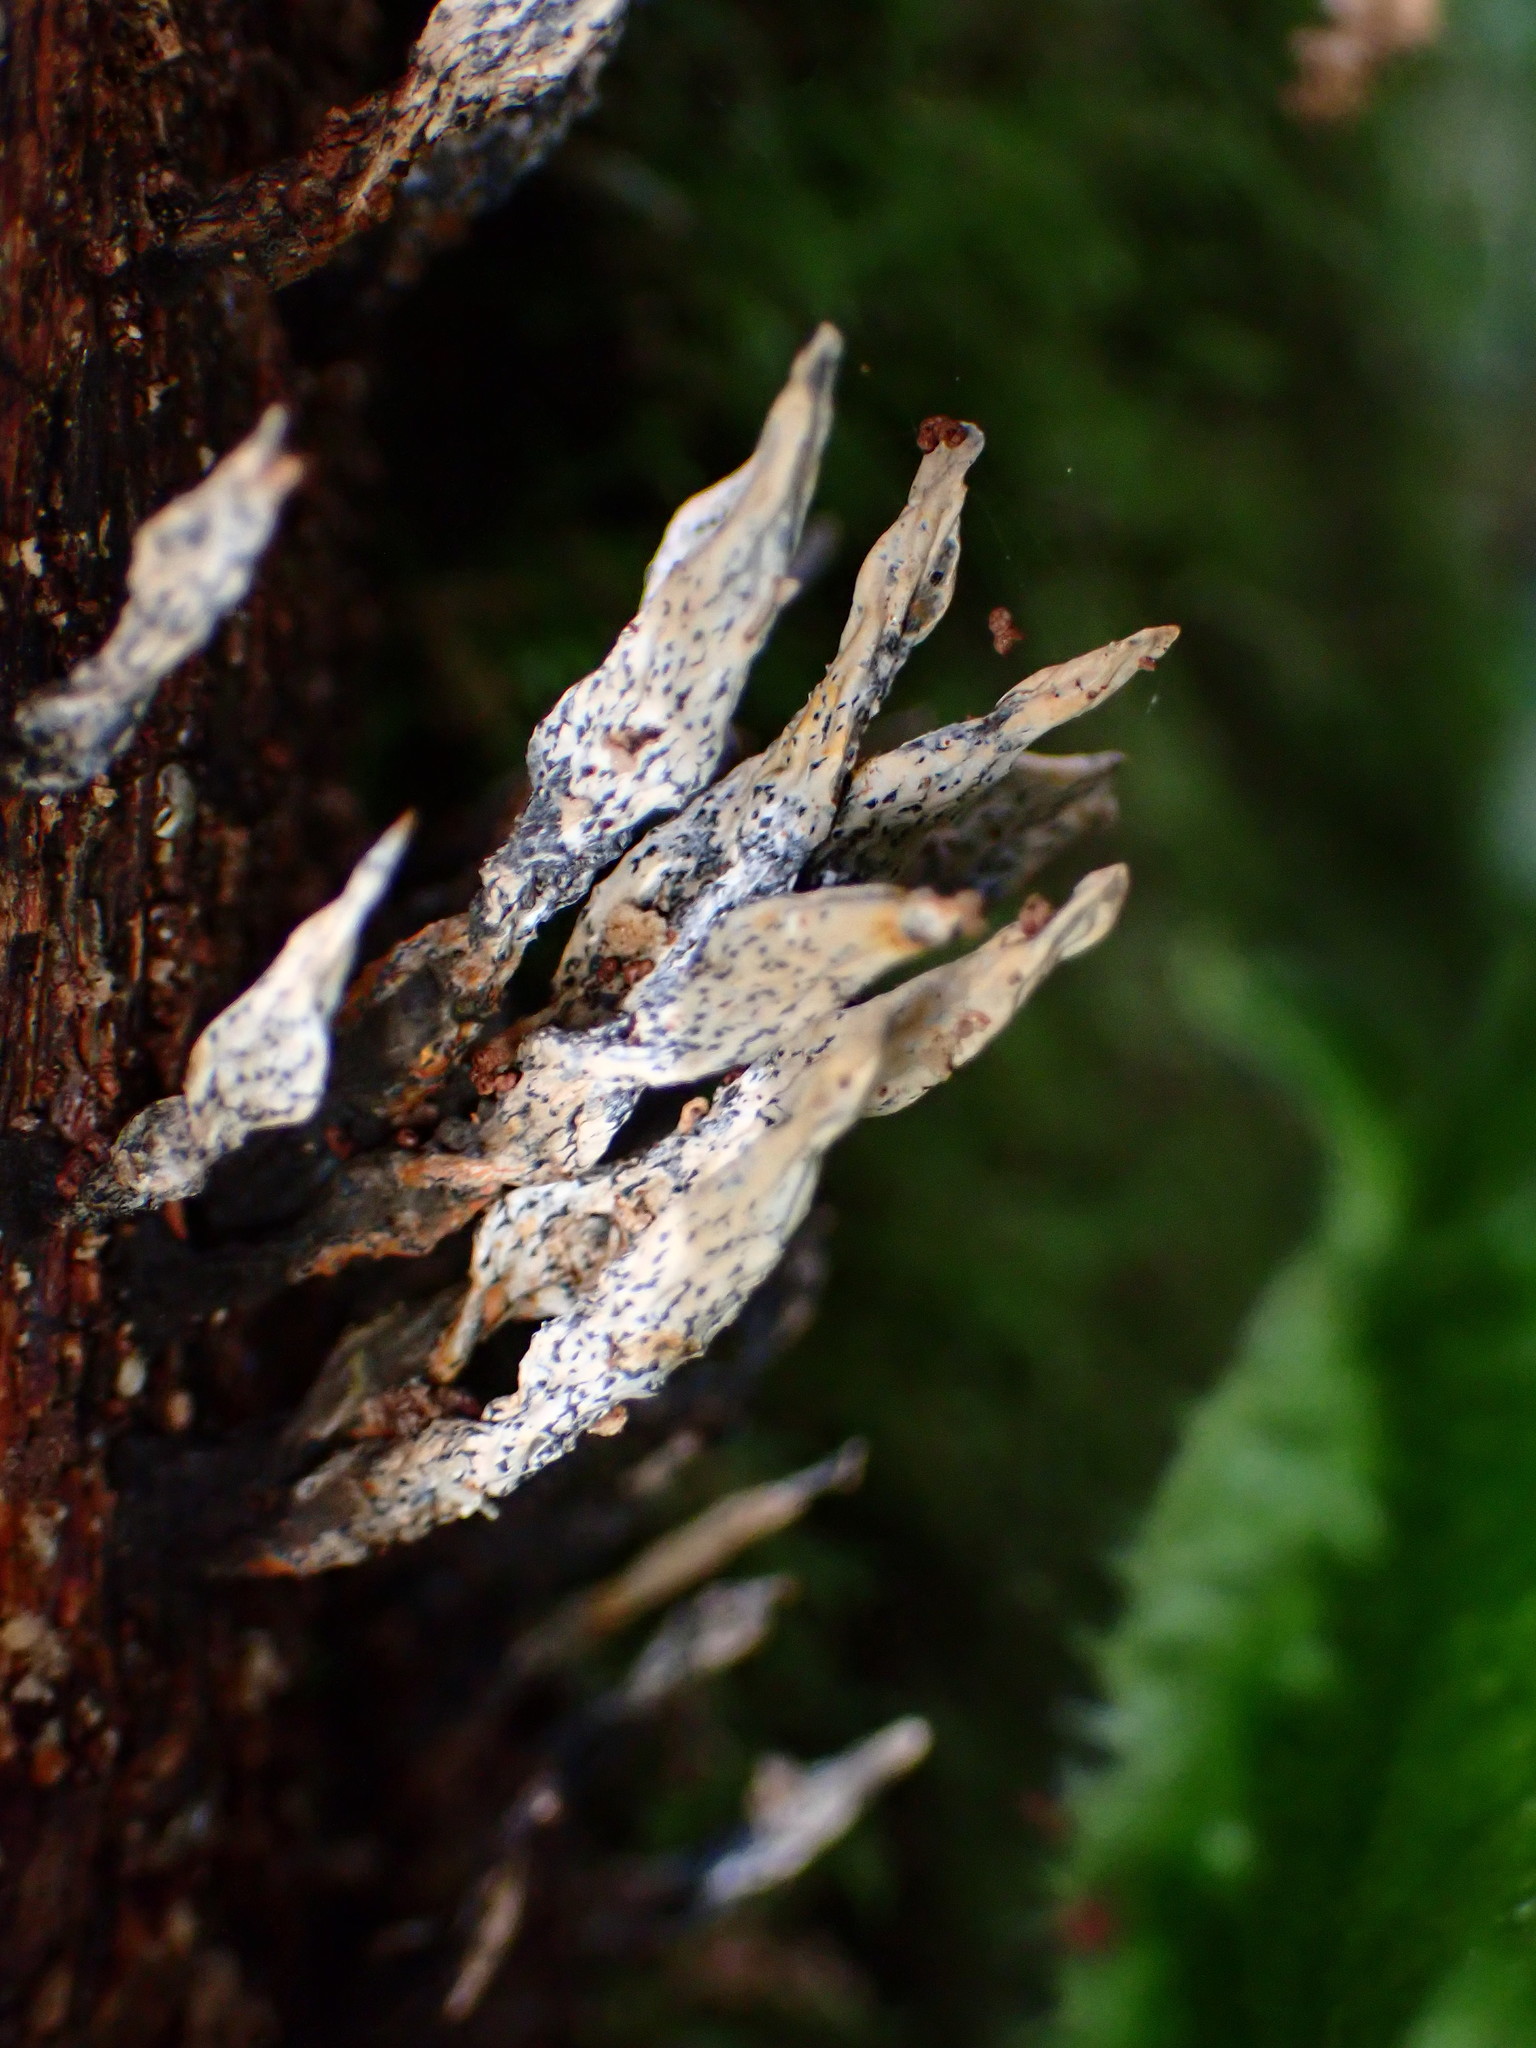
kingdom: Fungi
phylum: Ascomycota
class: Sordariomycetes
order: Xylariales
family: Xylariaceae
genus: Xylaria
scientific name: Xylaria hypoxylon
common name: Candle-snuff fungus
